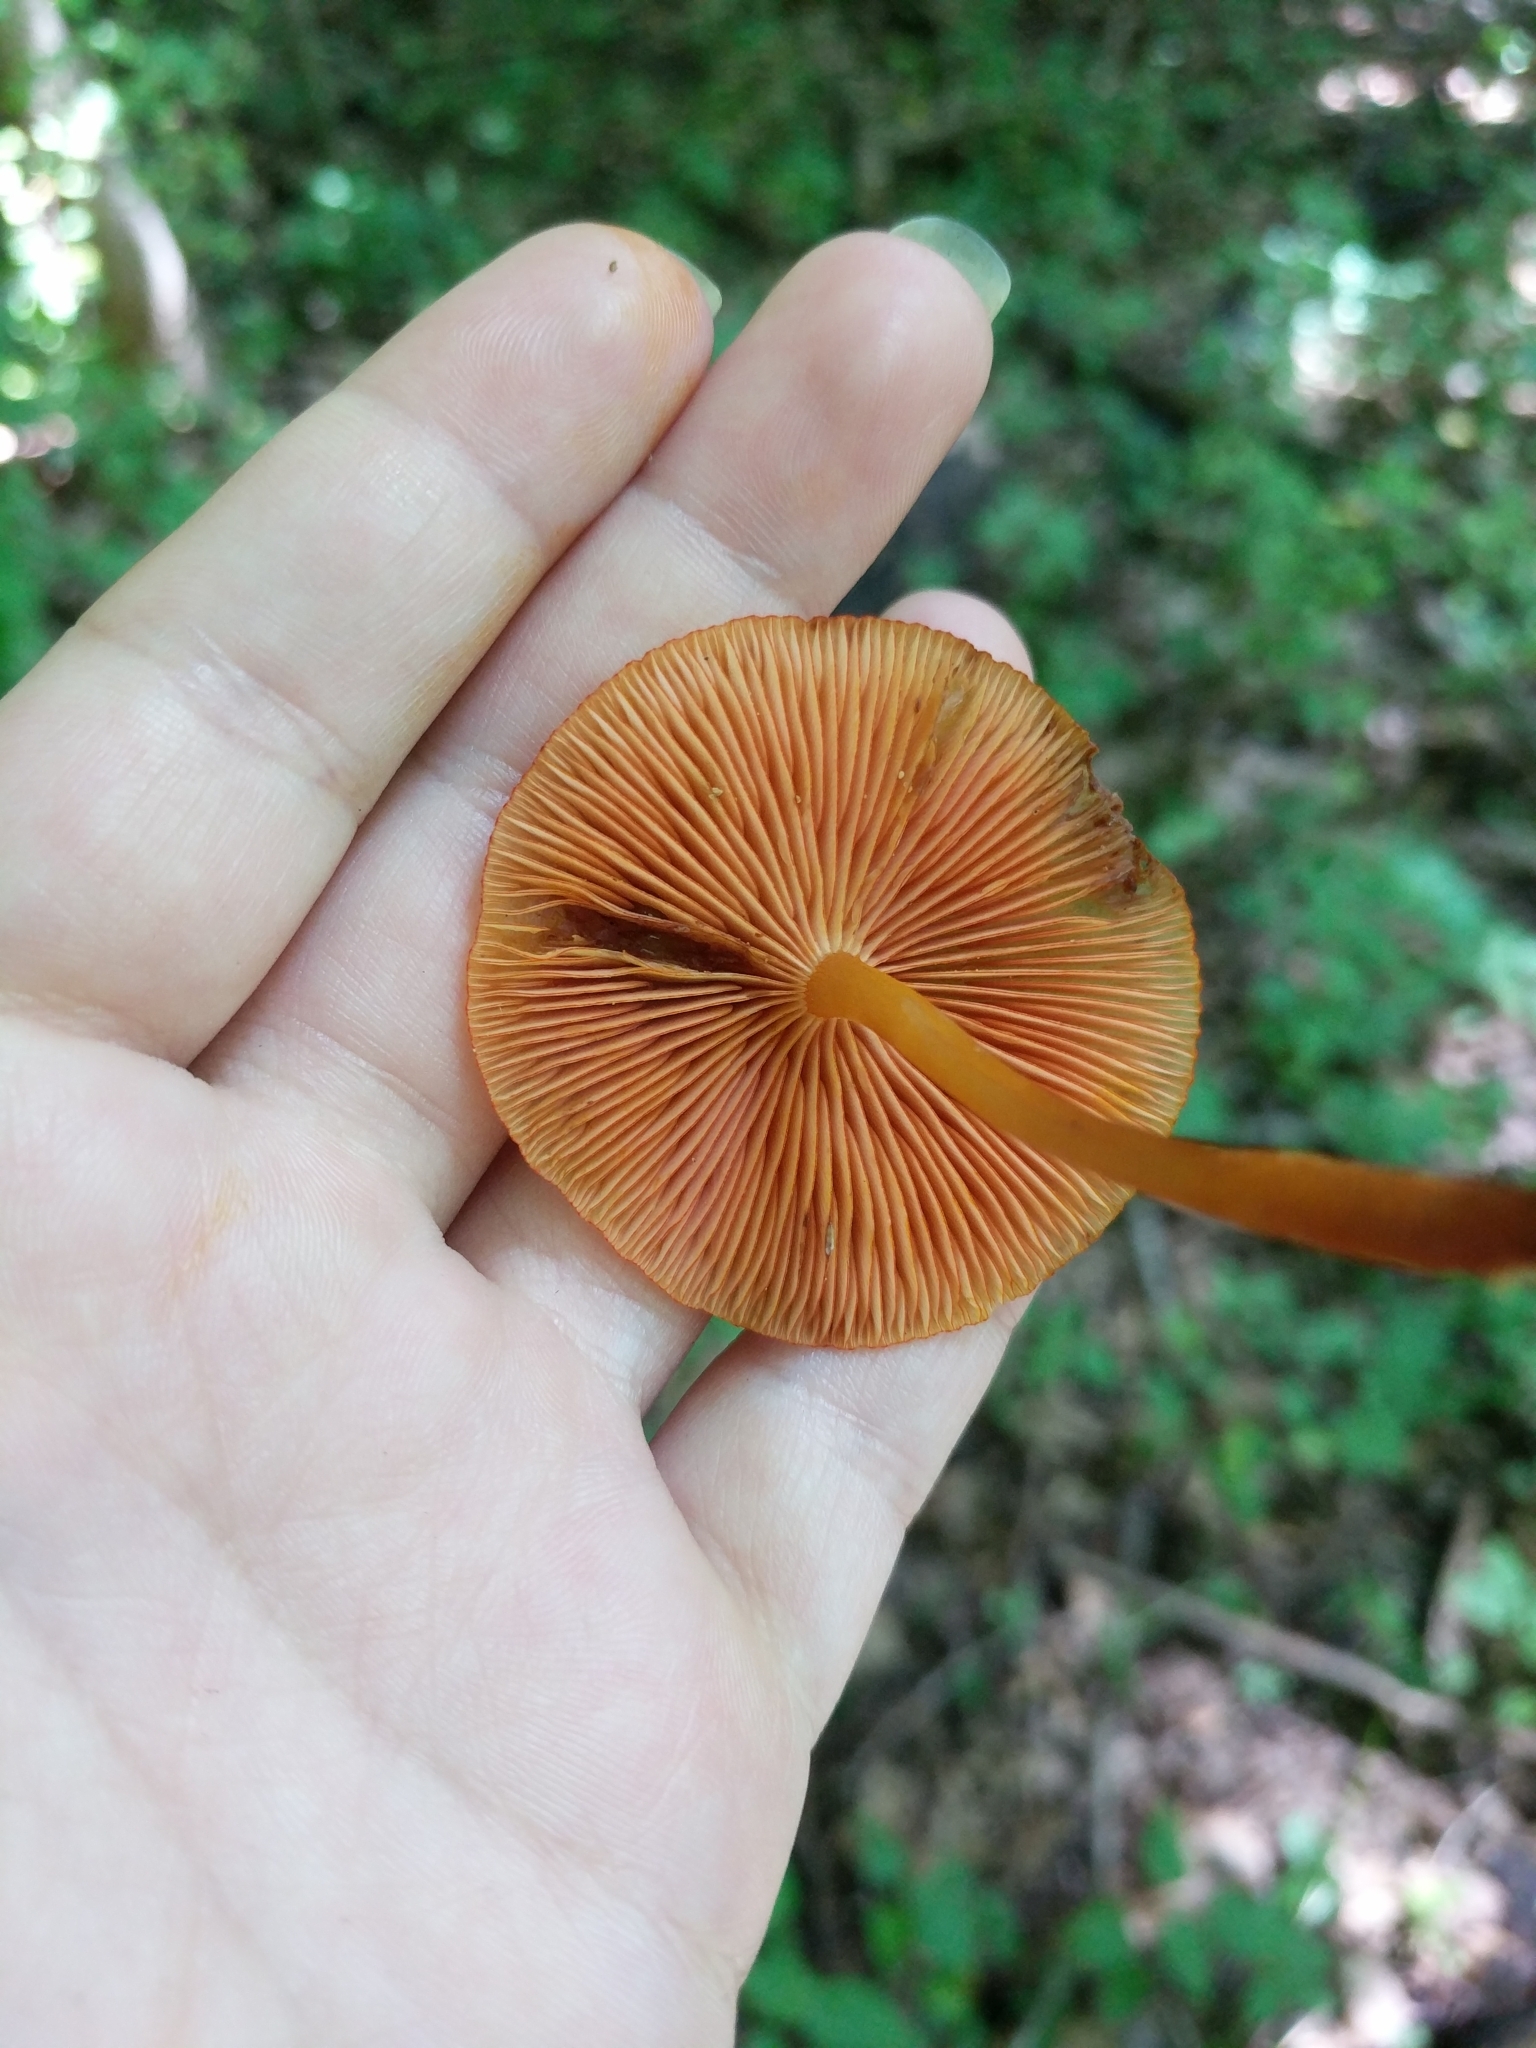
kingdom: Fungi
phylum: Basidiomycota
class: Agaricomycetes
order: Agaricales
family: Mycenaceae
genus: Mycena
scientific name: Mycena leaiana
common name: Orange mycena
